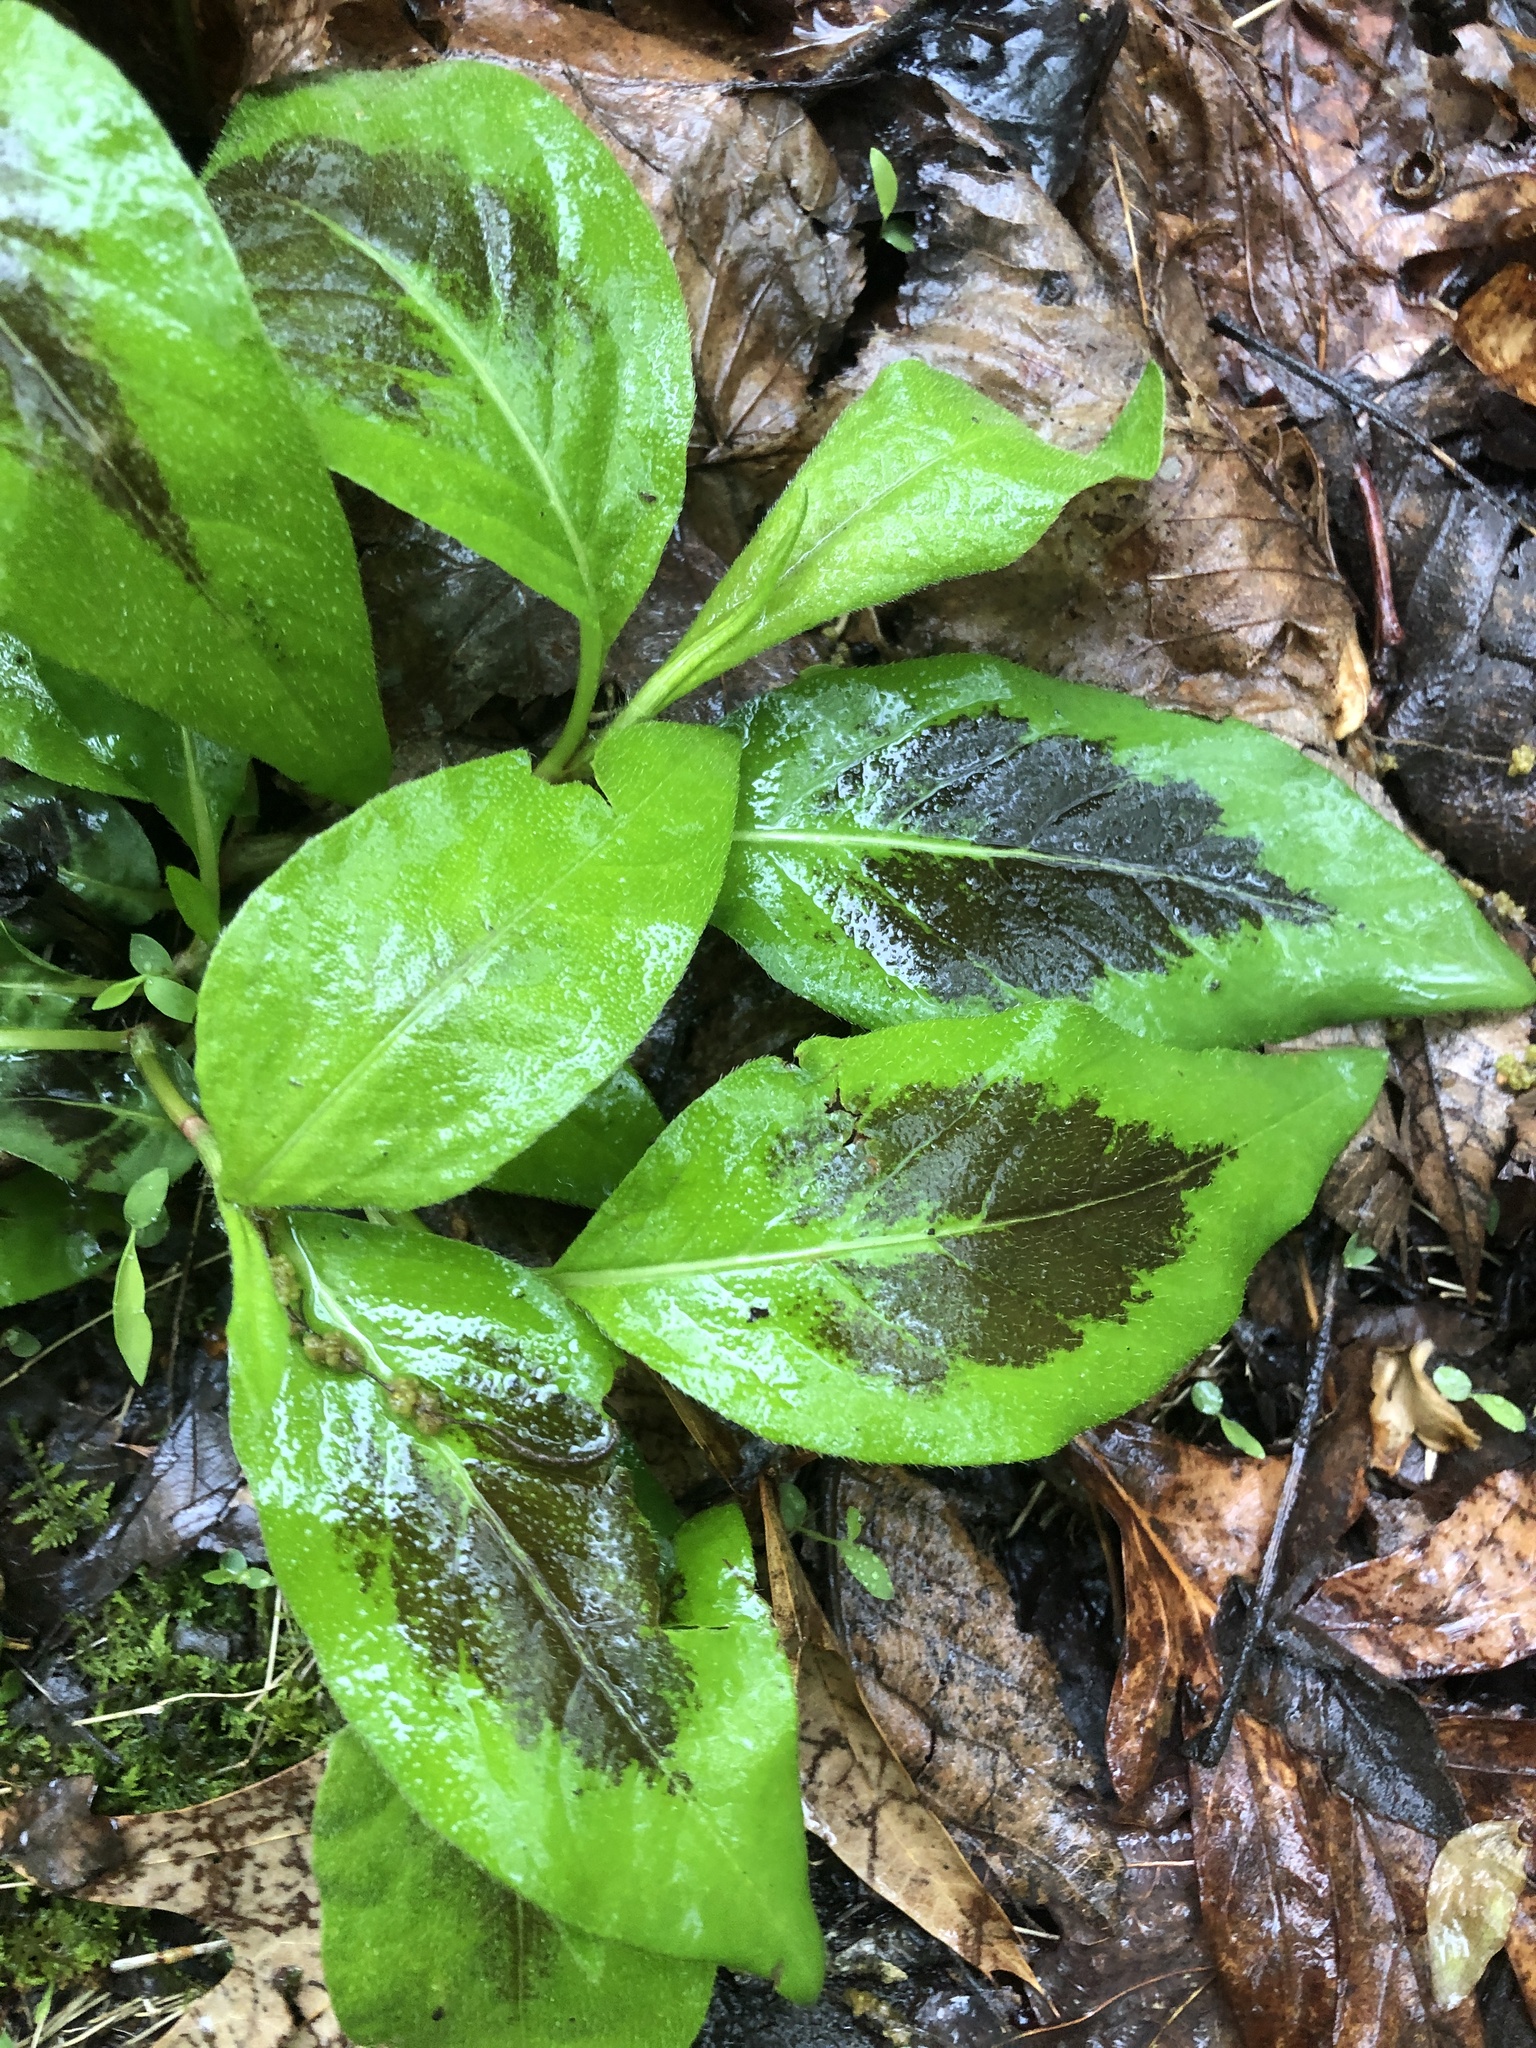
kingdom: Plantae
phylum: Tracheophyta
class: Magnoliopsida
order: Caryophyllales
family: Polygonaceae
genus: Persicaria
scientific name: Persicaria virginiana
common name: Jumpseed
